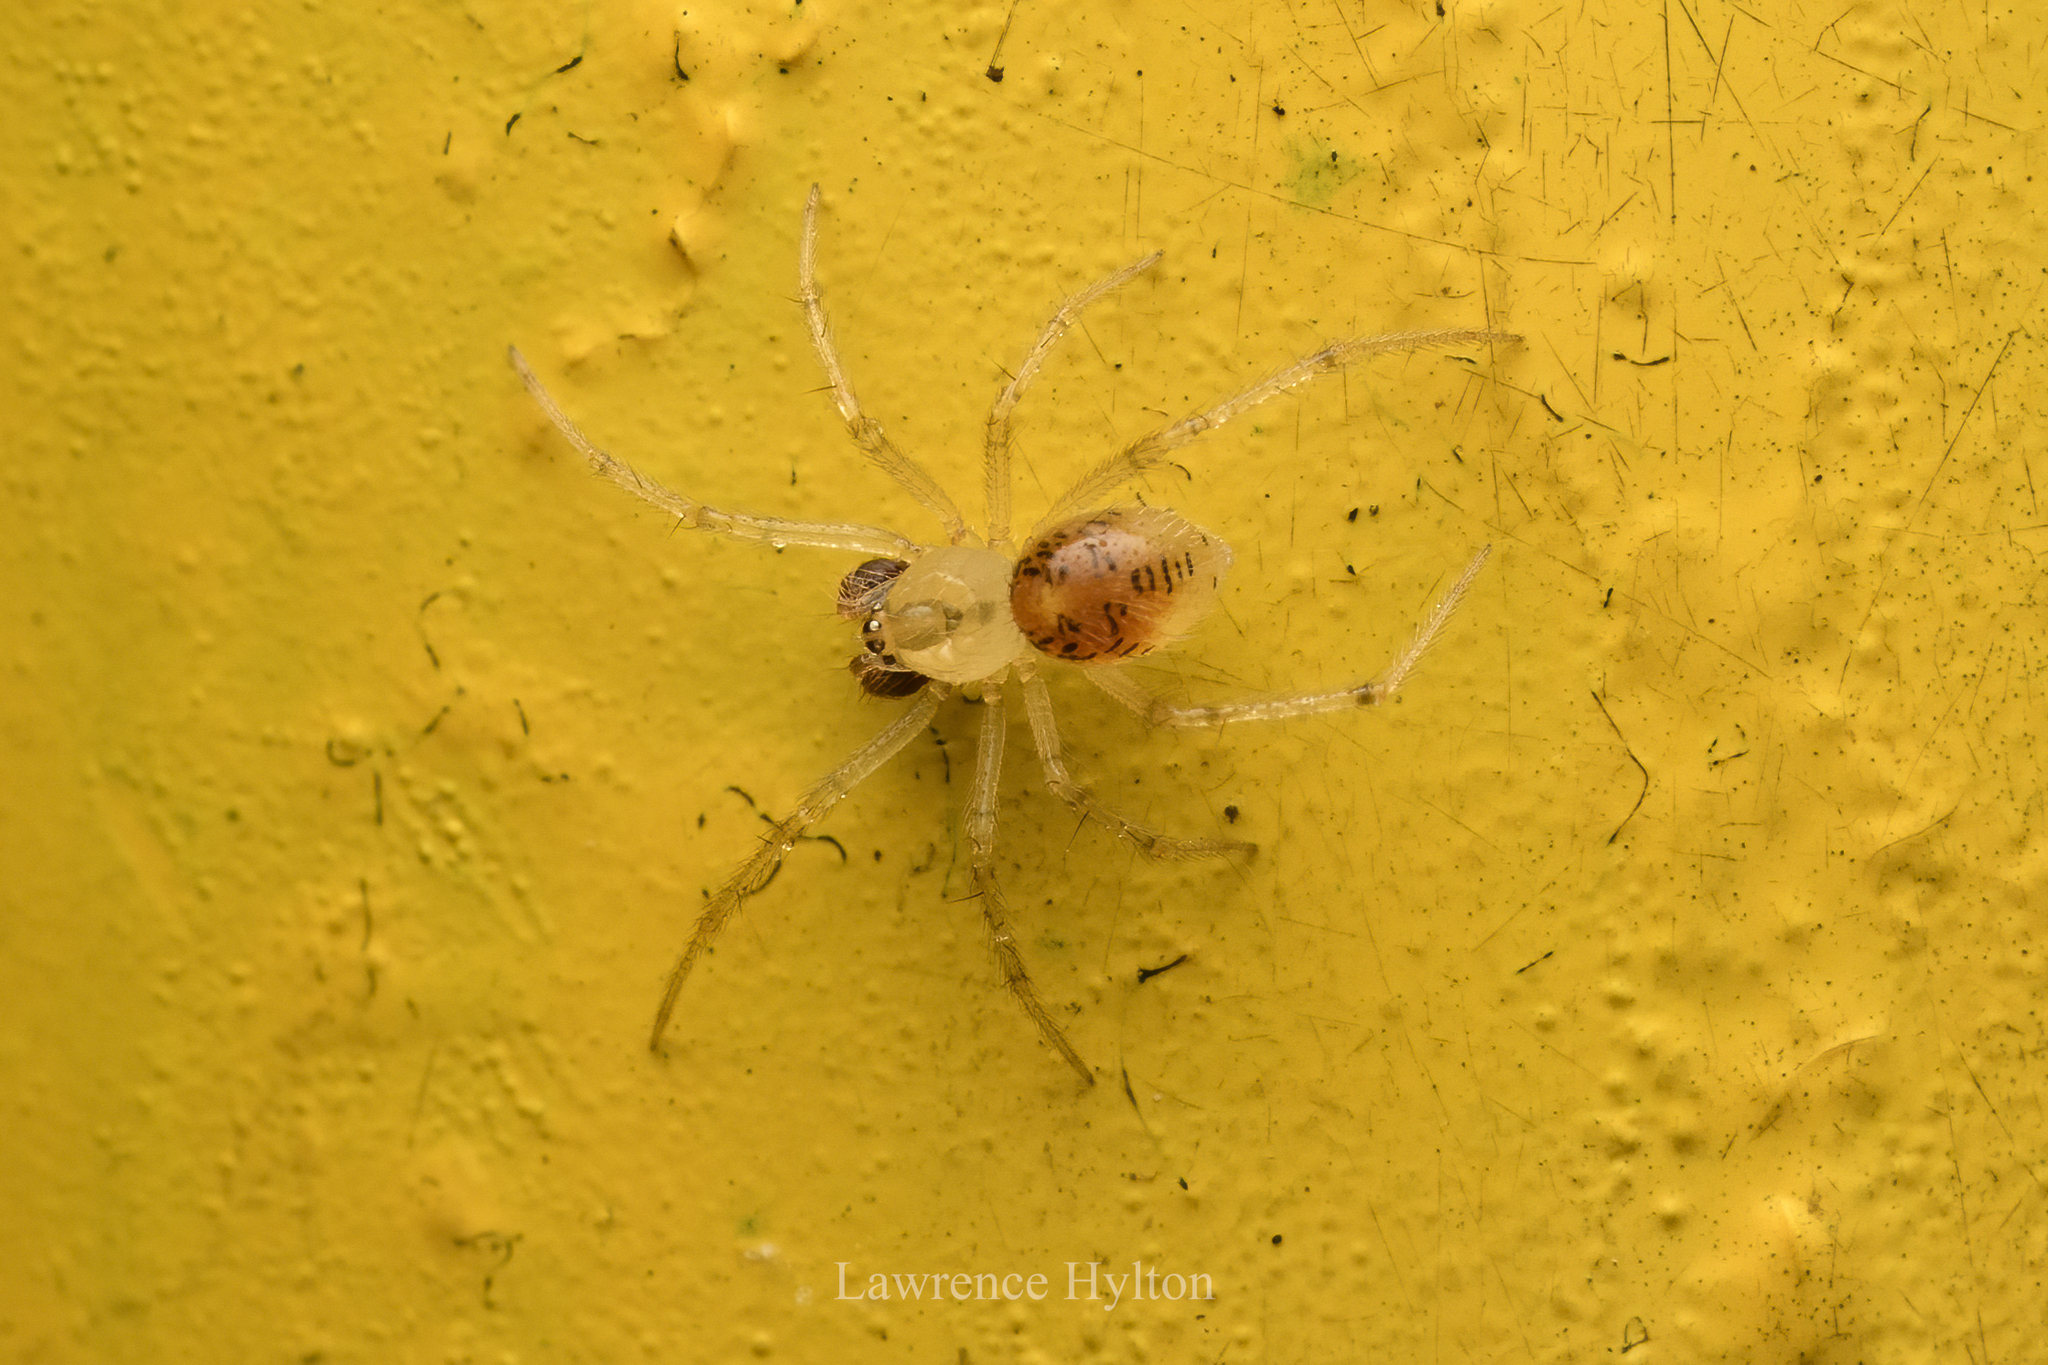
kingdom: Animalia
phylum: Arthropoda
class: Arachnida
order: Araneae
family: Theridiidae
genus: Phycosoma
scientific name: Phycosoma digitula
